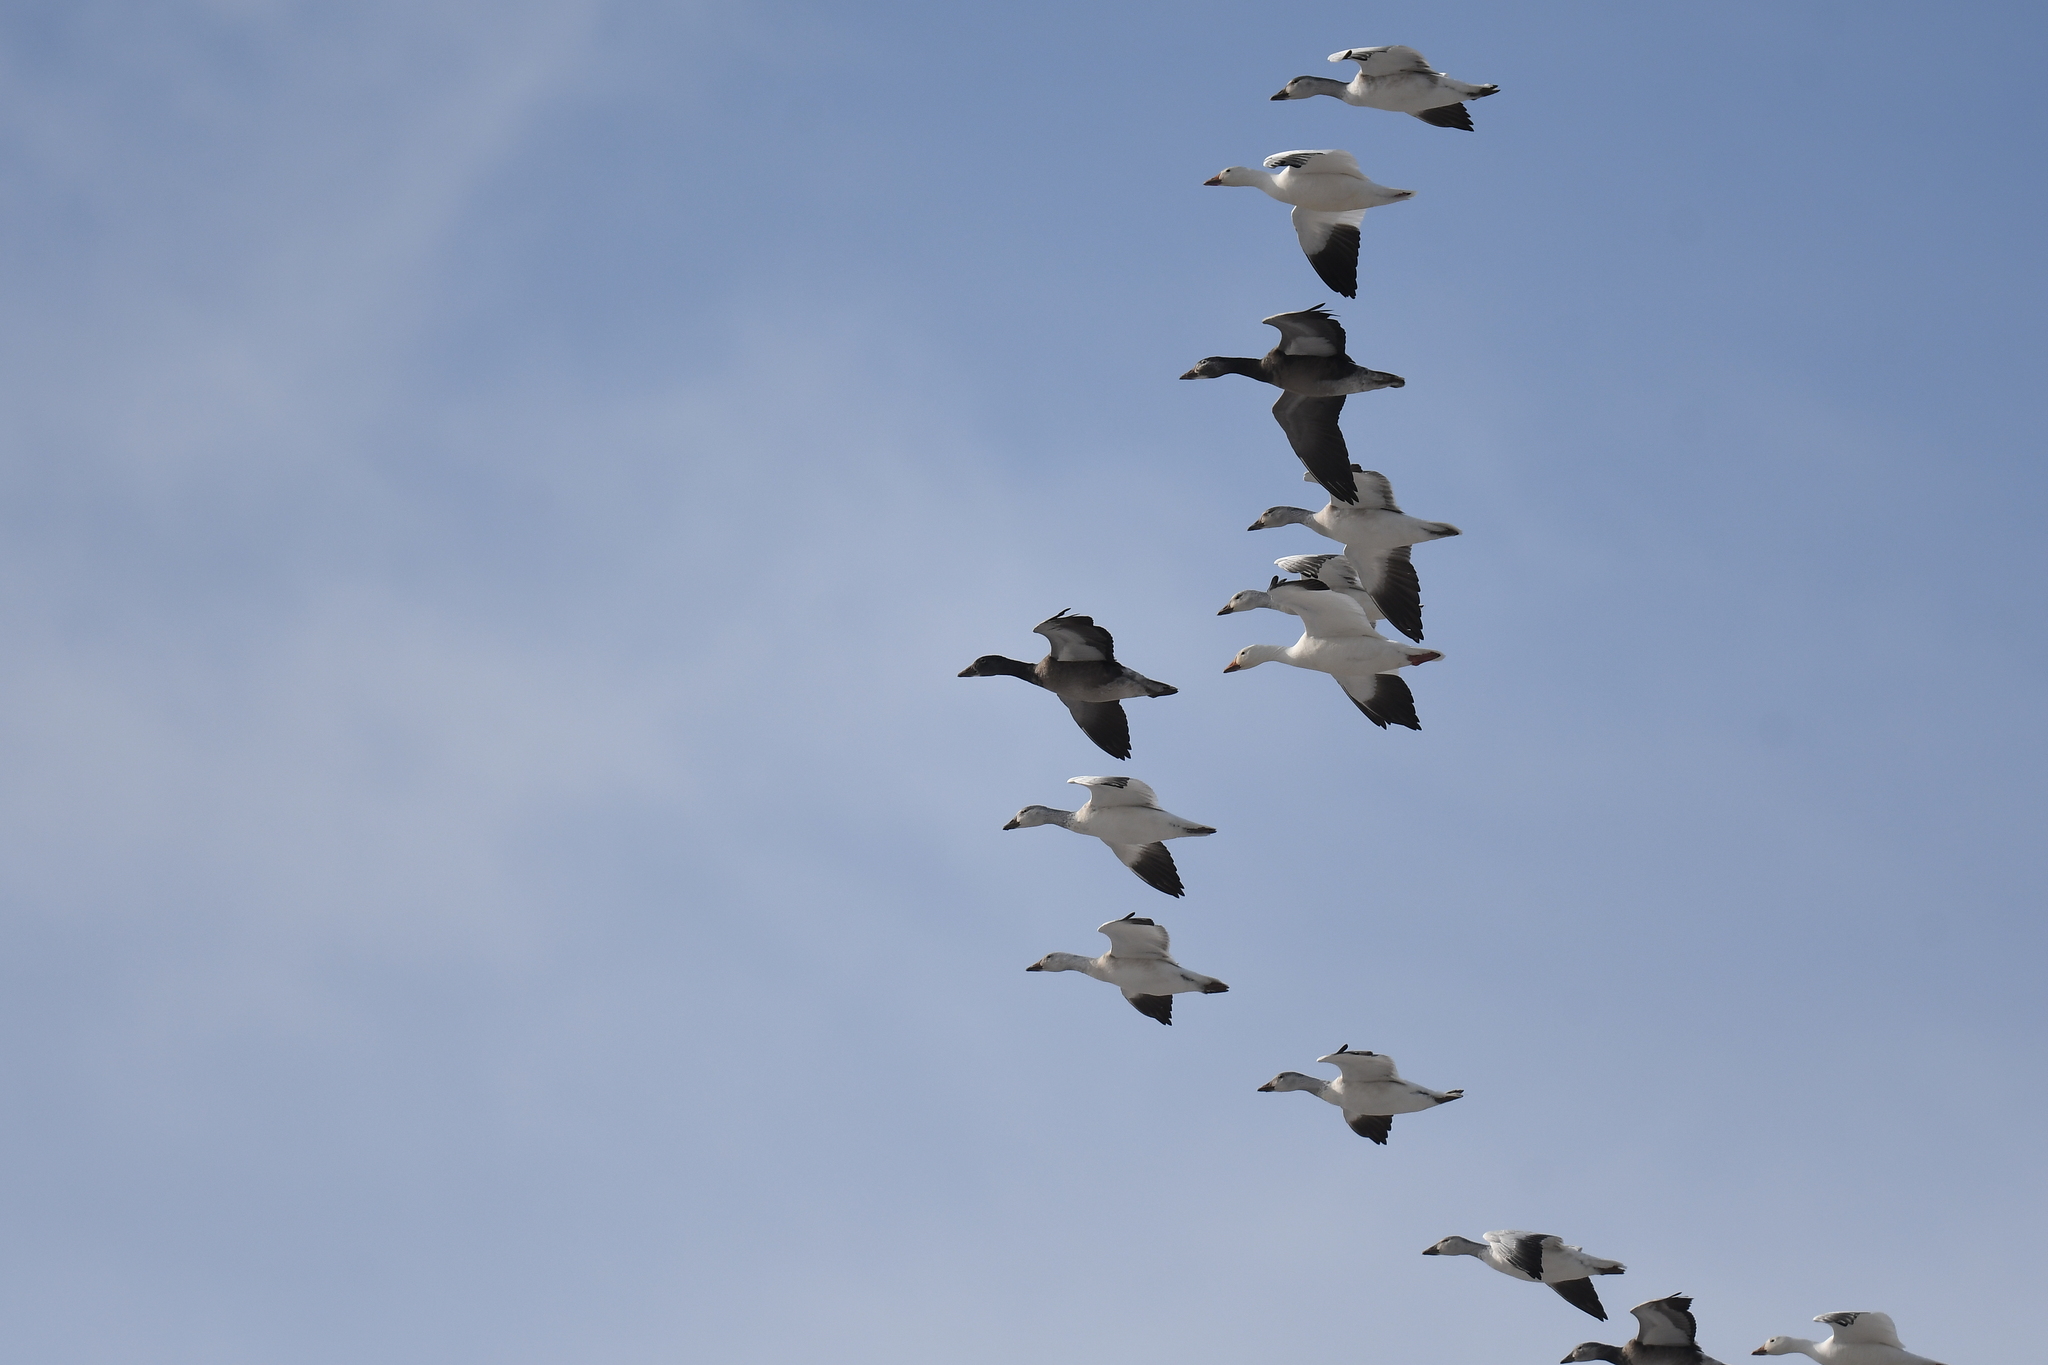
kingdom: Animalia
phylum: Chordata
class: Aves
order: Anseriformes
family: Anatidae
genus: Anser
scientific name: Anser caerulescens
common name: Snow goose
